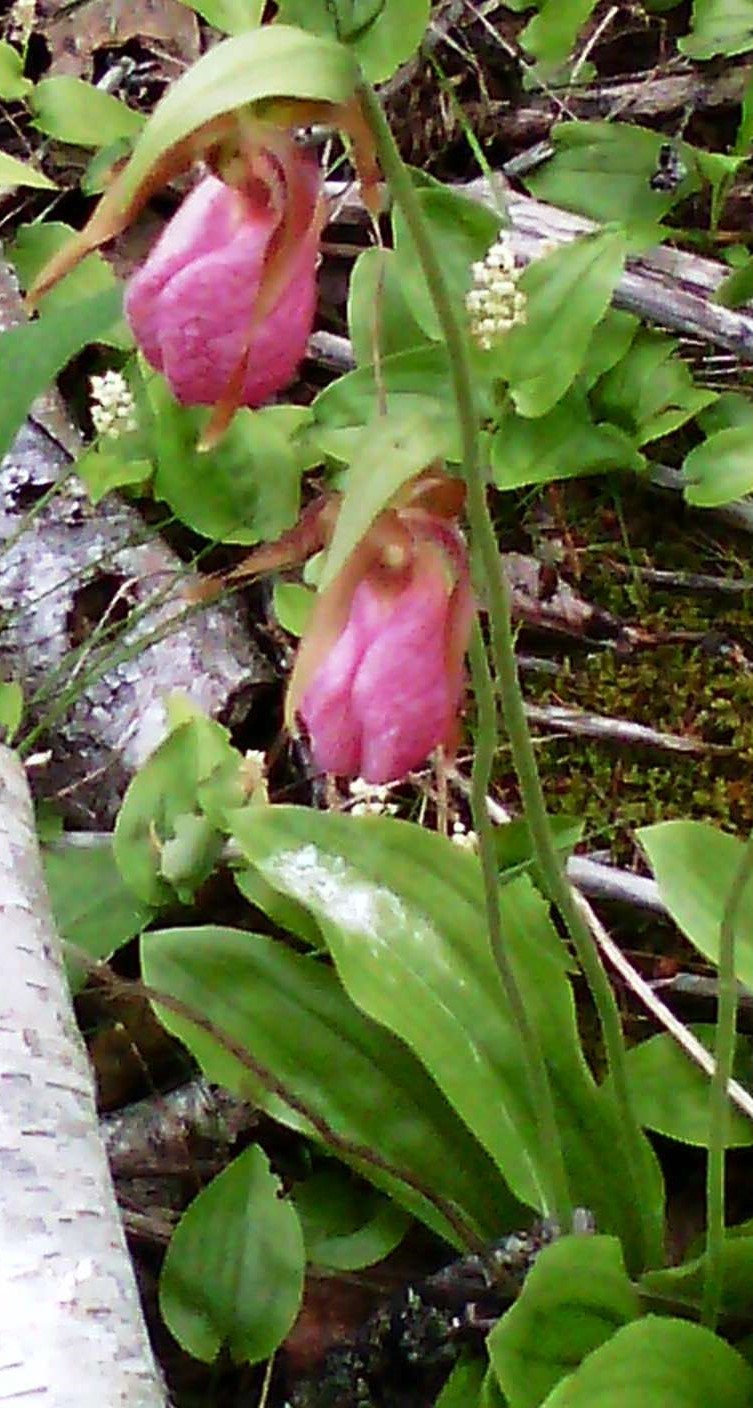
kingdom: Plantae
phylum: Tracheophyta
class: Liliopsida
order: Asparagales
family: Orchidaceae
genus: Cypripedium
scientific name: Cypripedium acaule
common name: Pink lady's-slipper
